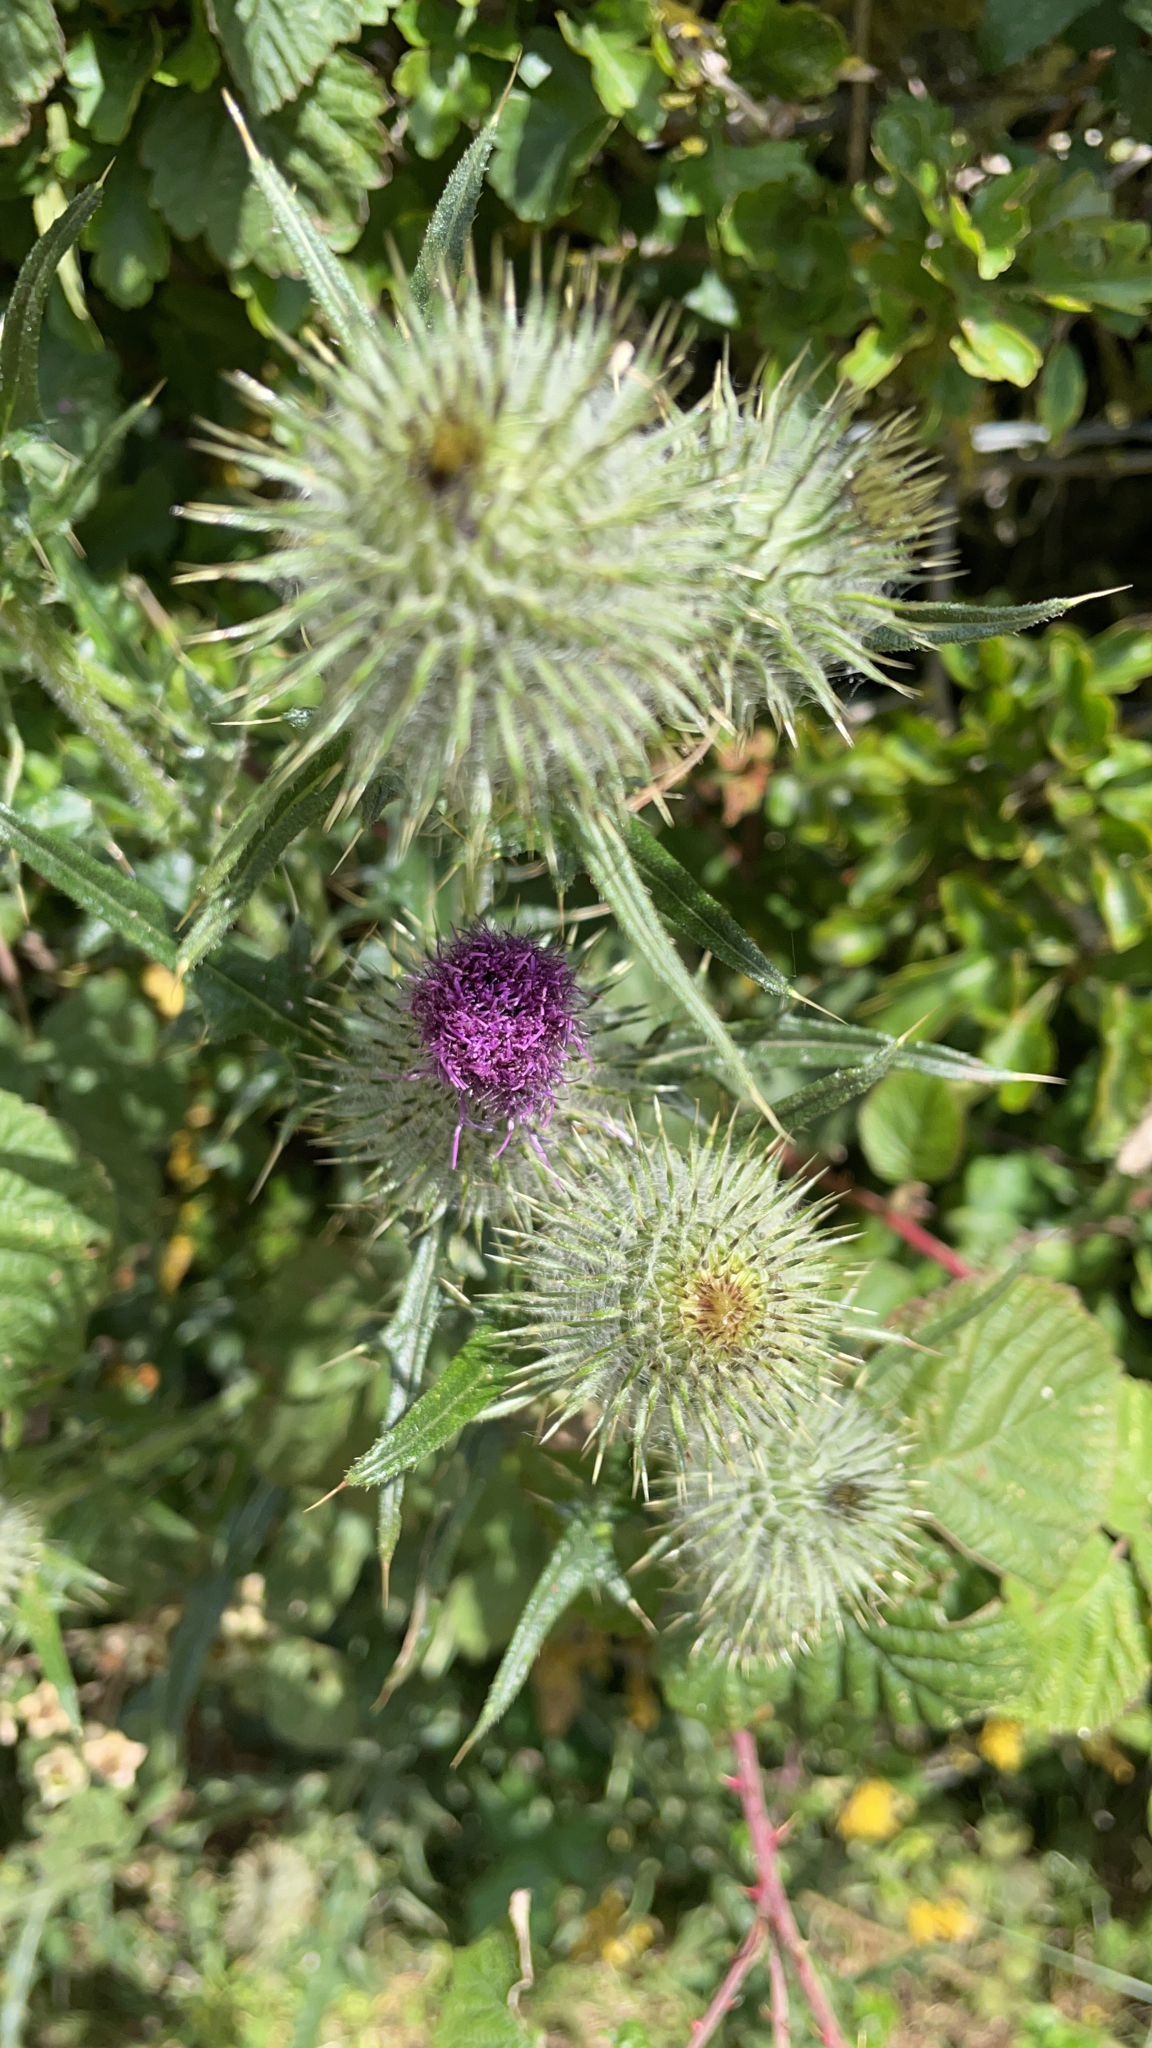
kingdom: Plantae
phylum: Tracheophyta
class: Magnoliopsida
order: Asterales
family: Asteraceae
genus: Cirsium
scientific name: Cirsium vulgare
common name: Bull thistle
